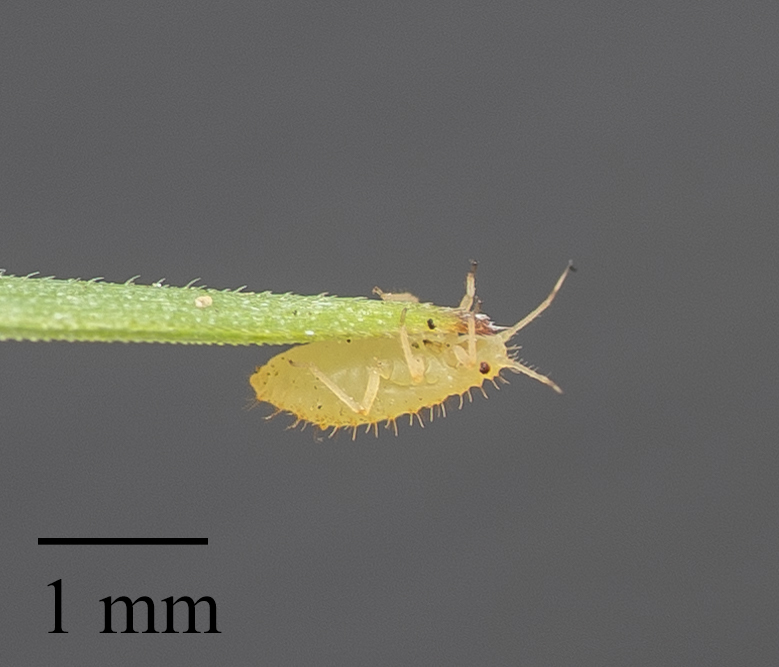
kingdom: Animalia
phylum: Arthropoda
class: Insecta
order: Hemiptera
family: Aphididae
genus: Sipha
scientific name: Sipha flava
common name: Yellow sugarcane aphid
